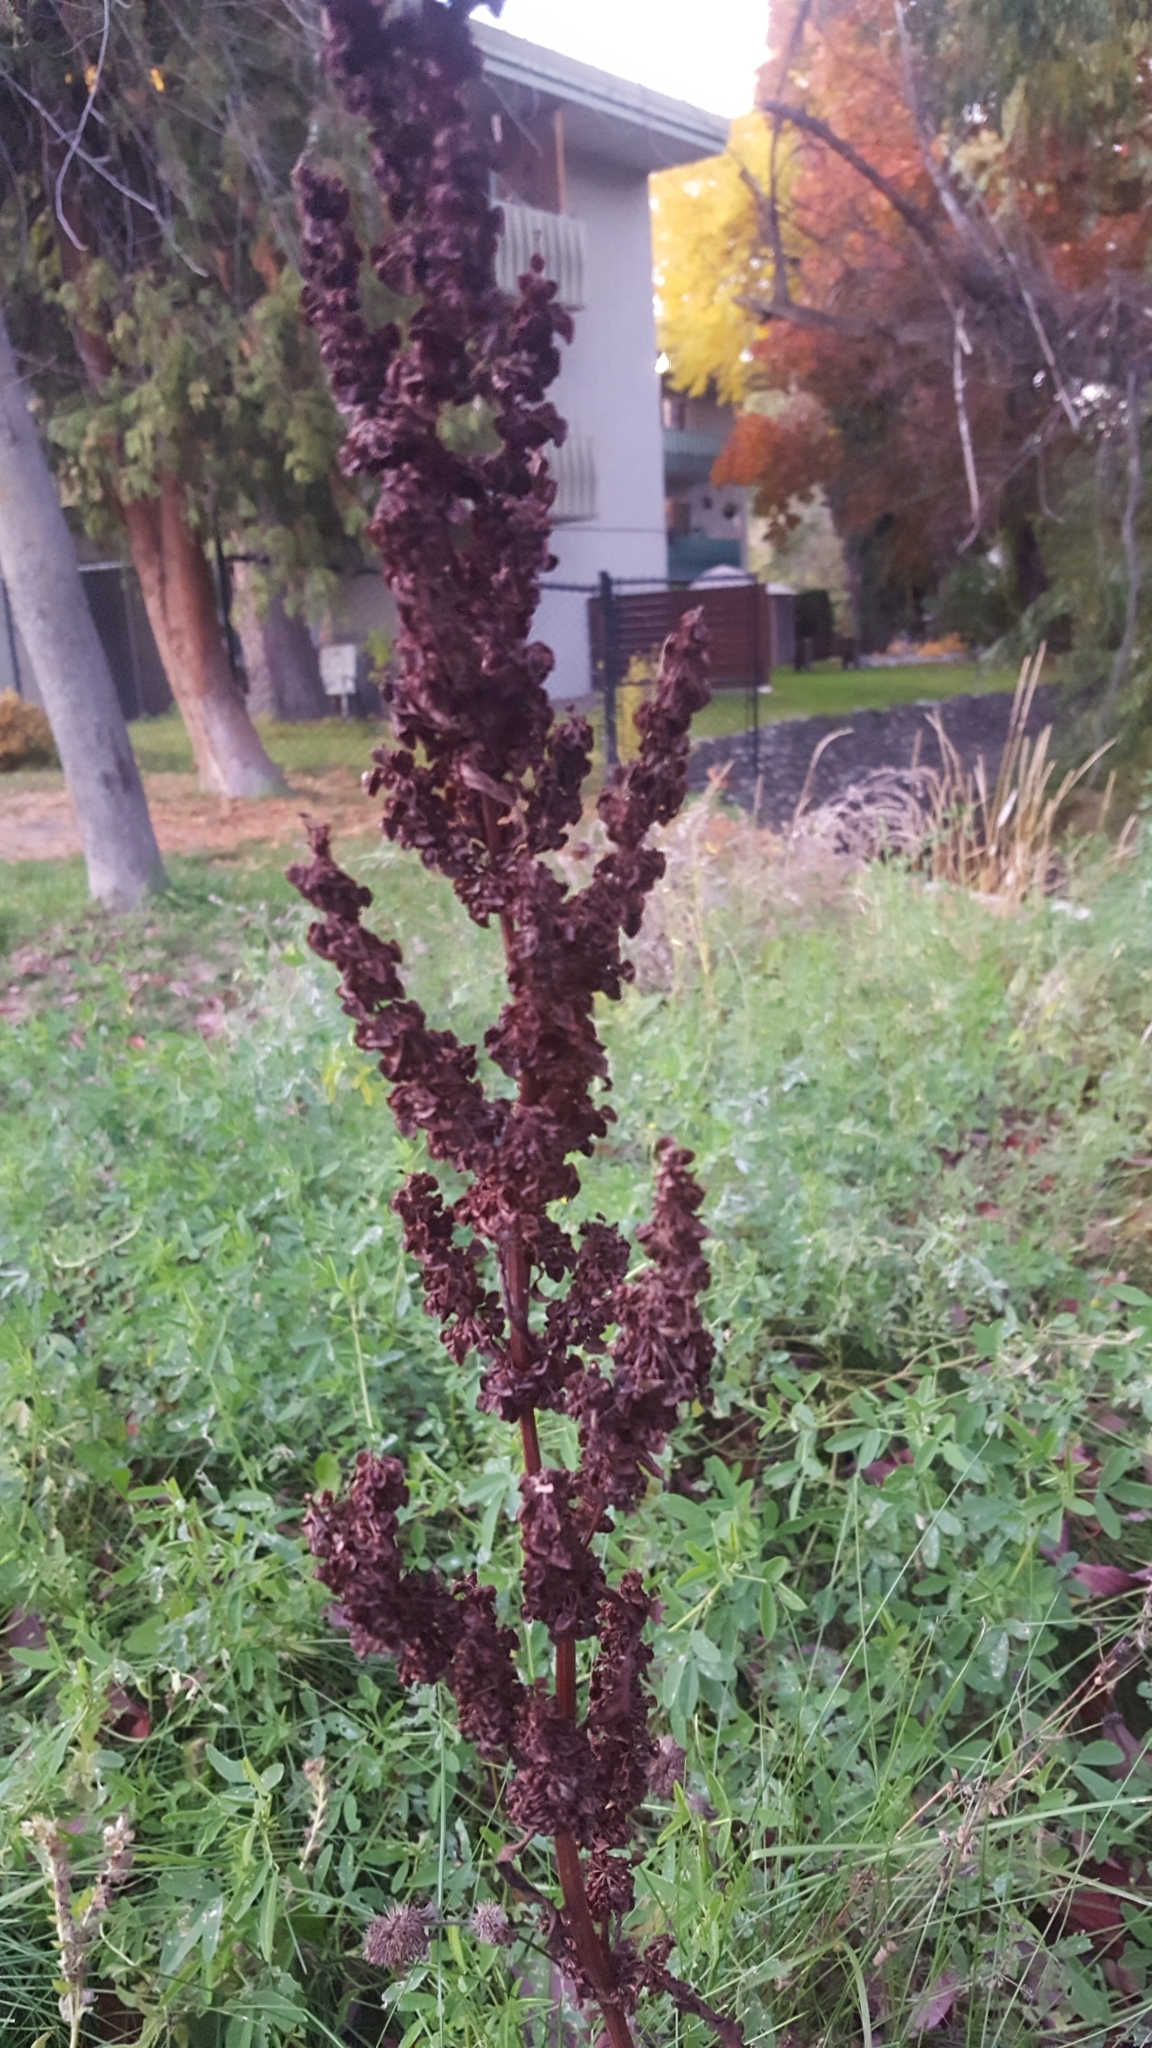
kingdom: Plantae
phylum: Tracheophyta
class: Magnoliopsida
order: Caryophyllales
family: Polygonaceae
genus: Rumex
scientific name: Rumex crispus
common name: Curled dock
